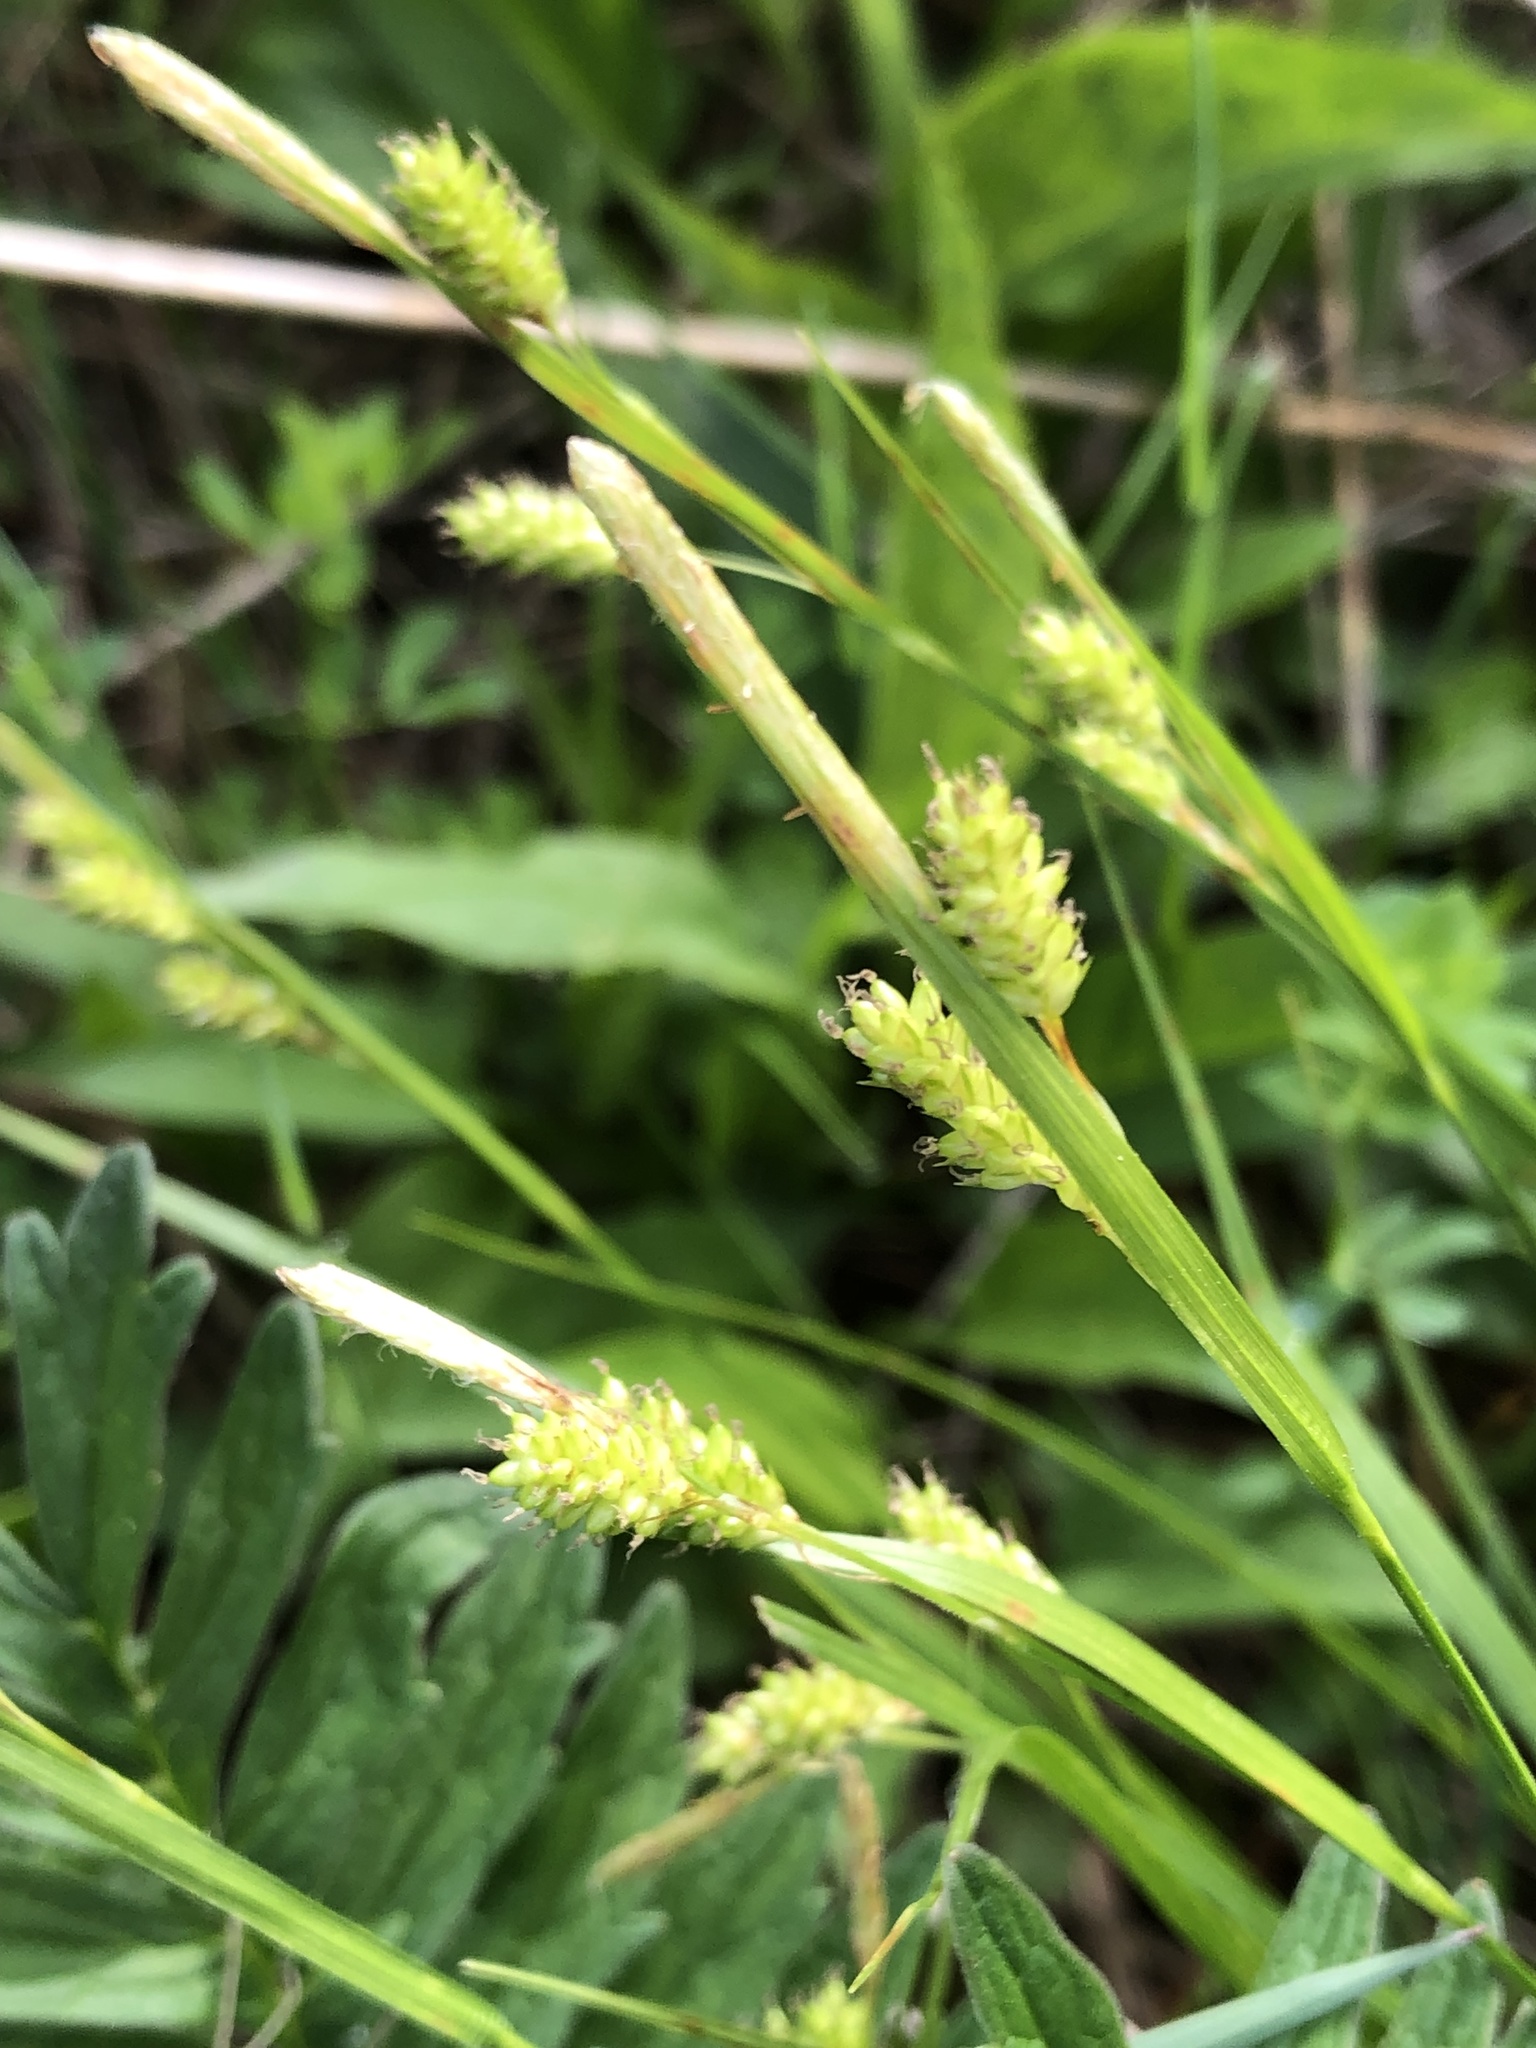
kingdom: Plantae
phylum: Tracheophyta
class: Liliopsida
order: Poales
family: Cyperaceae
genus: Carex
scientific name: Carex pallescens
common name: Pale sedge
